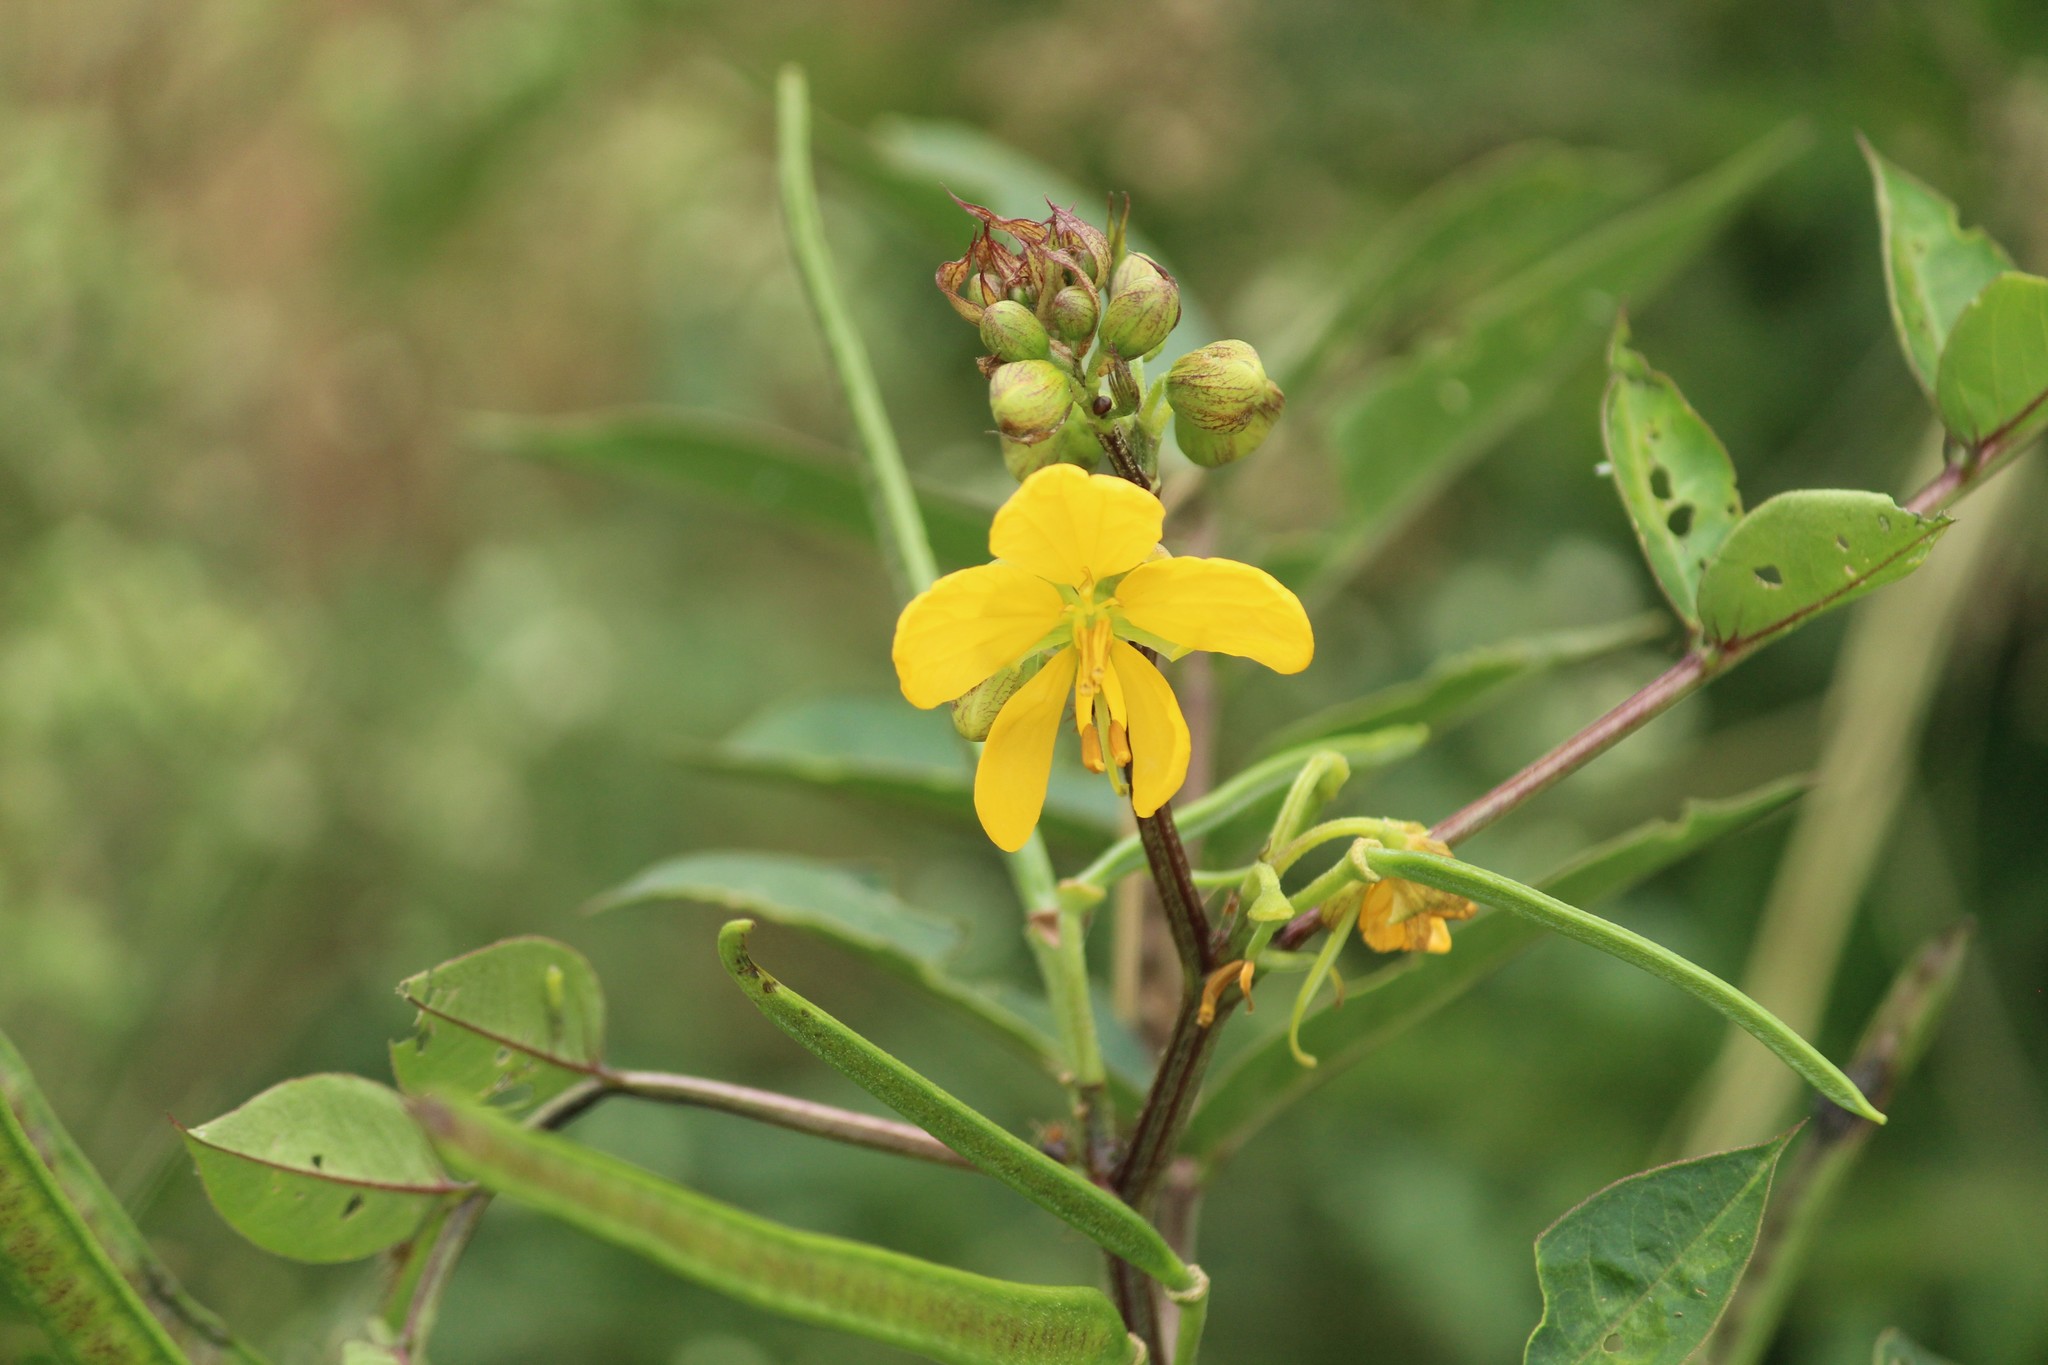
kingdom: Plantae
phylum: Tracheophyta
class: Magnoliopsida
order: Fabales
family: Fabaceae
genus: Senna
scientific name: Senna occidentalis
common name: Septicweed
